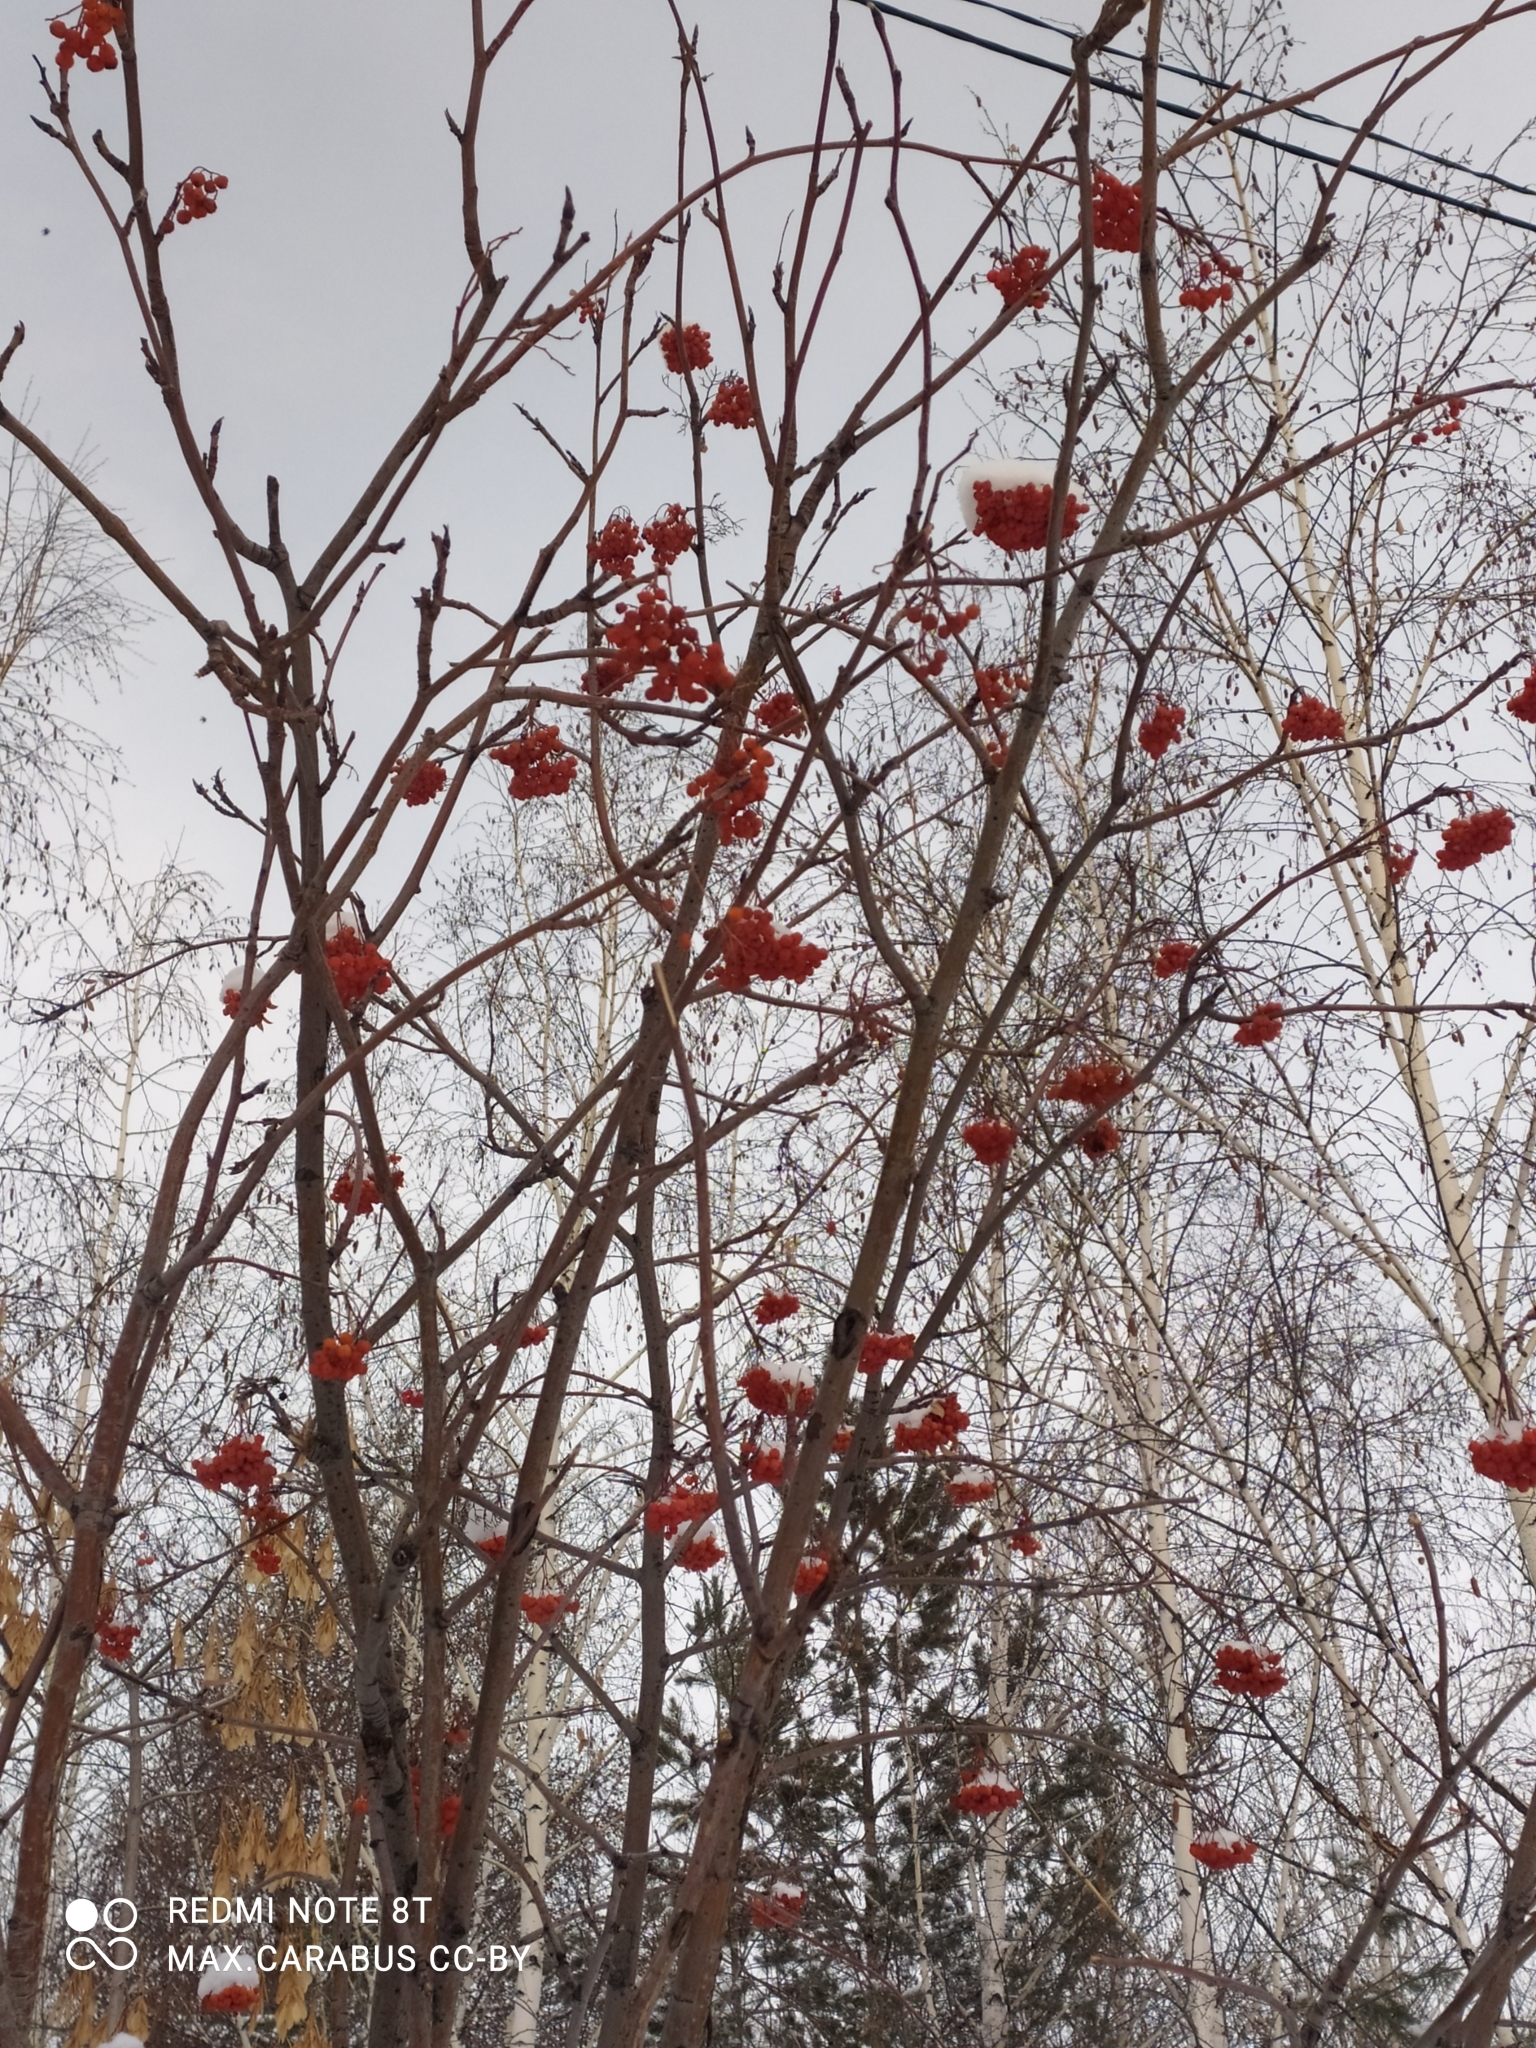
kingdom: Plantae
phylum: Tracheophyta
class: Magnoliopsida
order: Rosales
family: Rosaceae
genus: Sorbus
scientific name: Sorbus aucuparia
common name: Rowan
